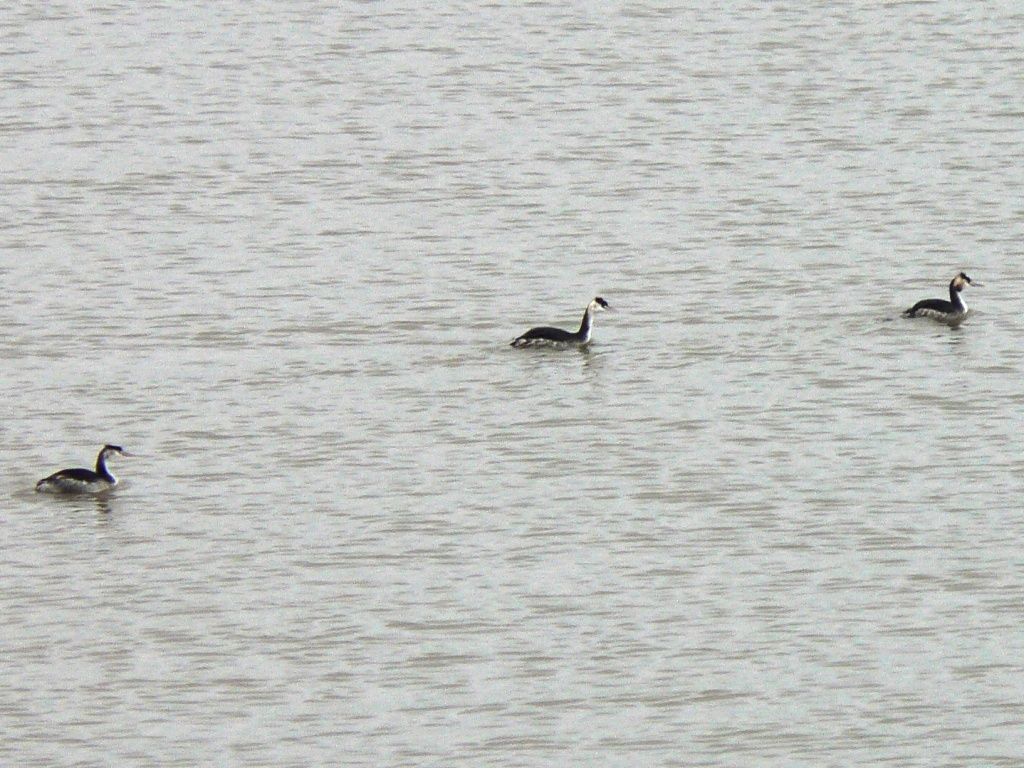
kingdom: Animalia
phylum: Chordata
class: Aves
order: Podicipediformes
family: Podicipedidae
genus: Podiceps
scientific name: Podiceps cristatus
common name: Great crested grebe
